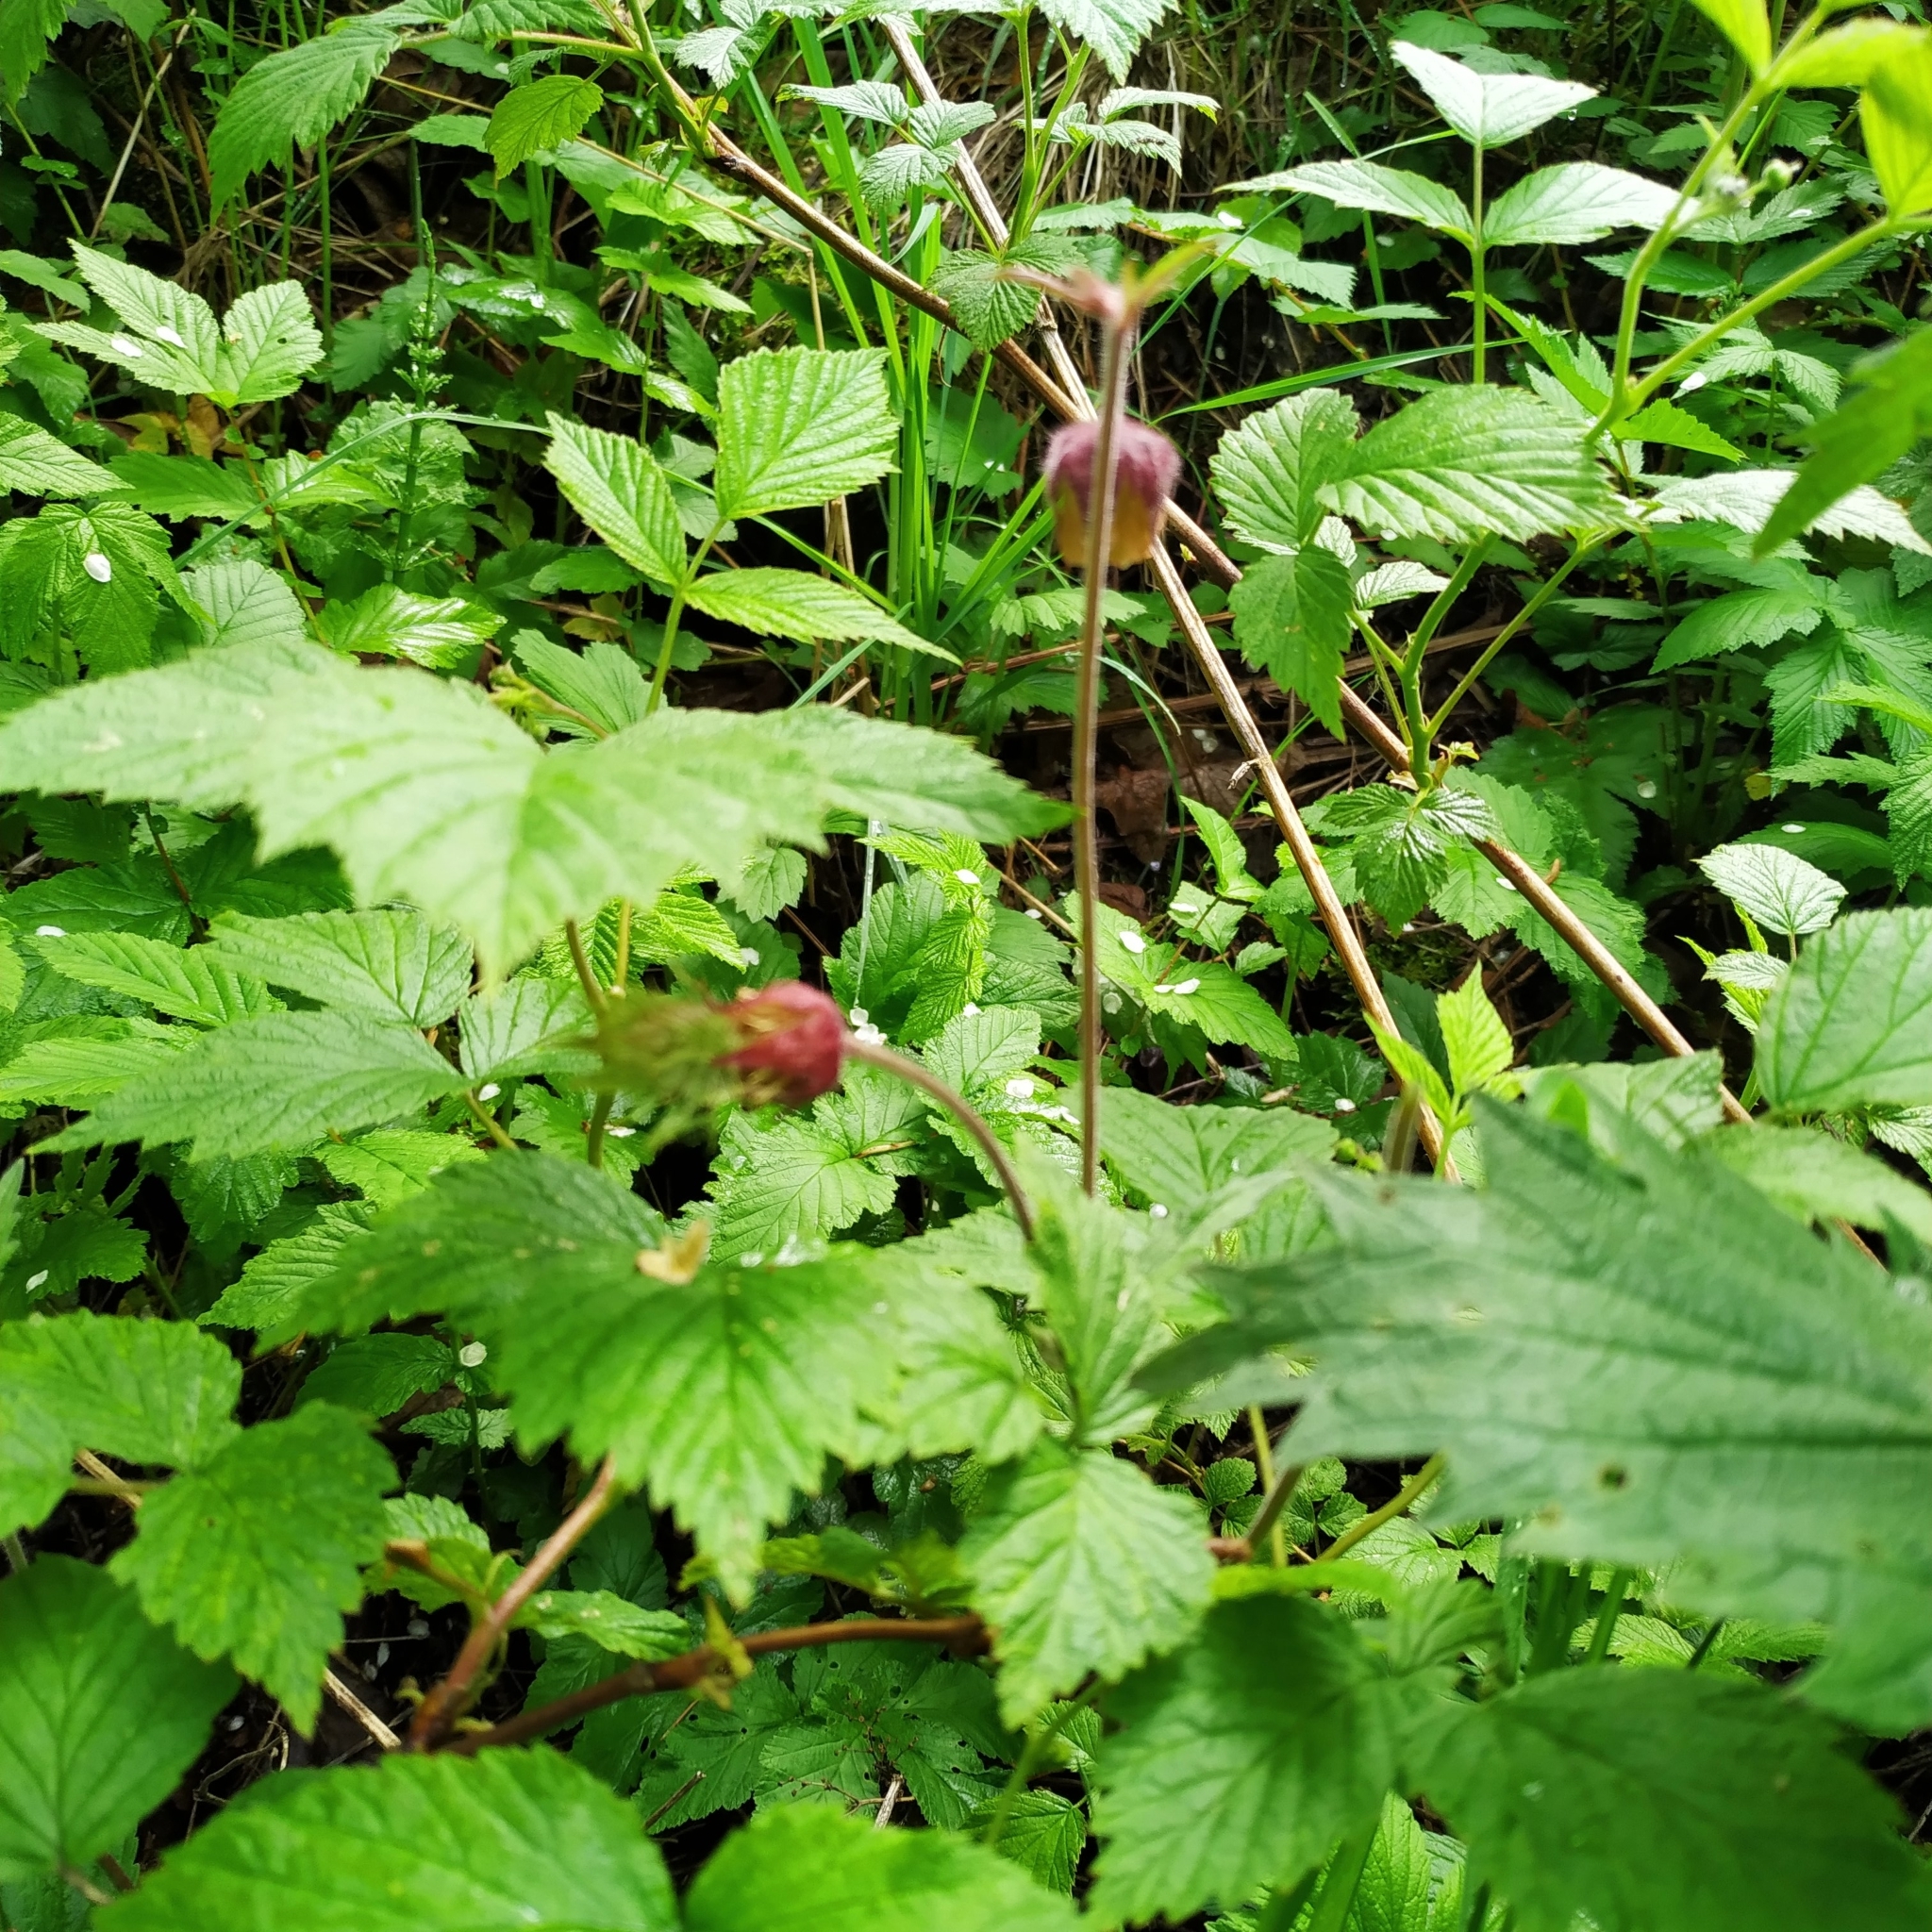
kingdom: Plantae
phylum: Tracheophyta
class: Magnoliopsida
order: Rosales
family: Rosaceae
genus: Geum
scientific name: Geum rivale
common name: Water avens
